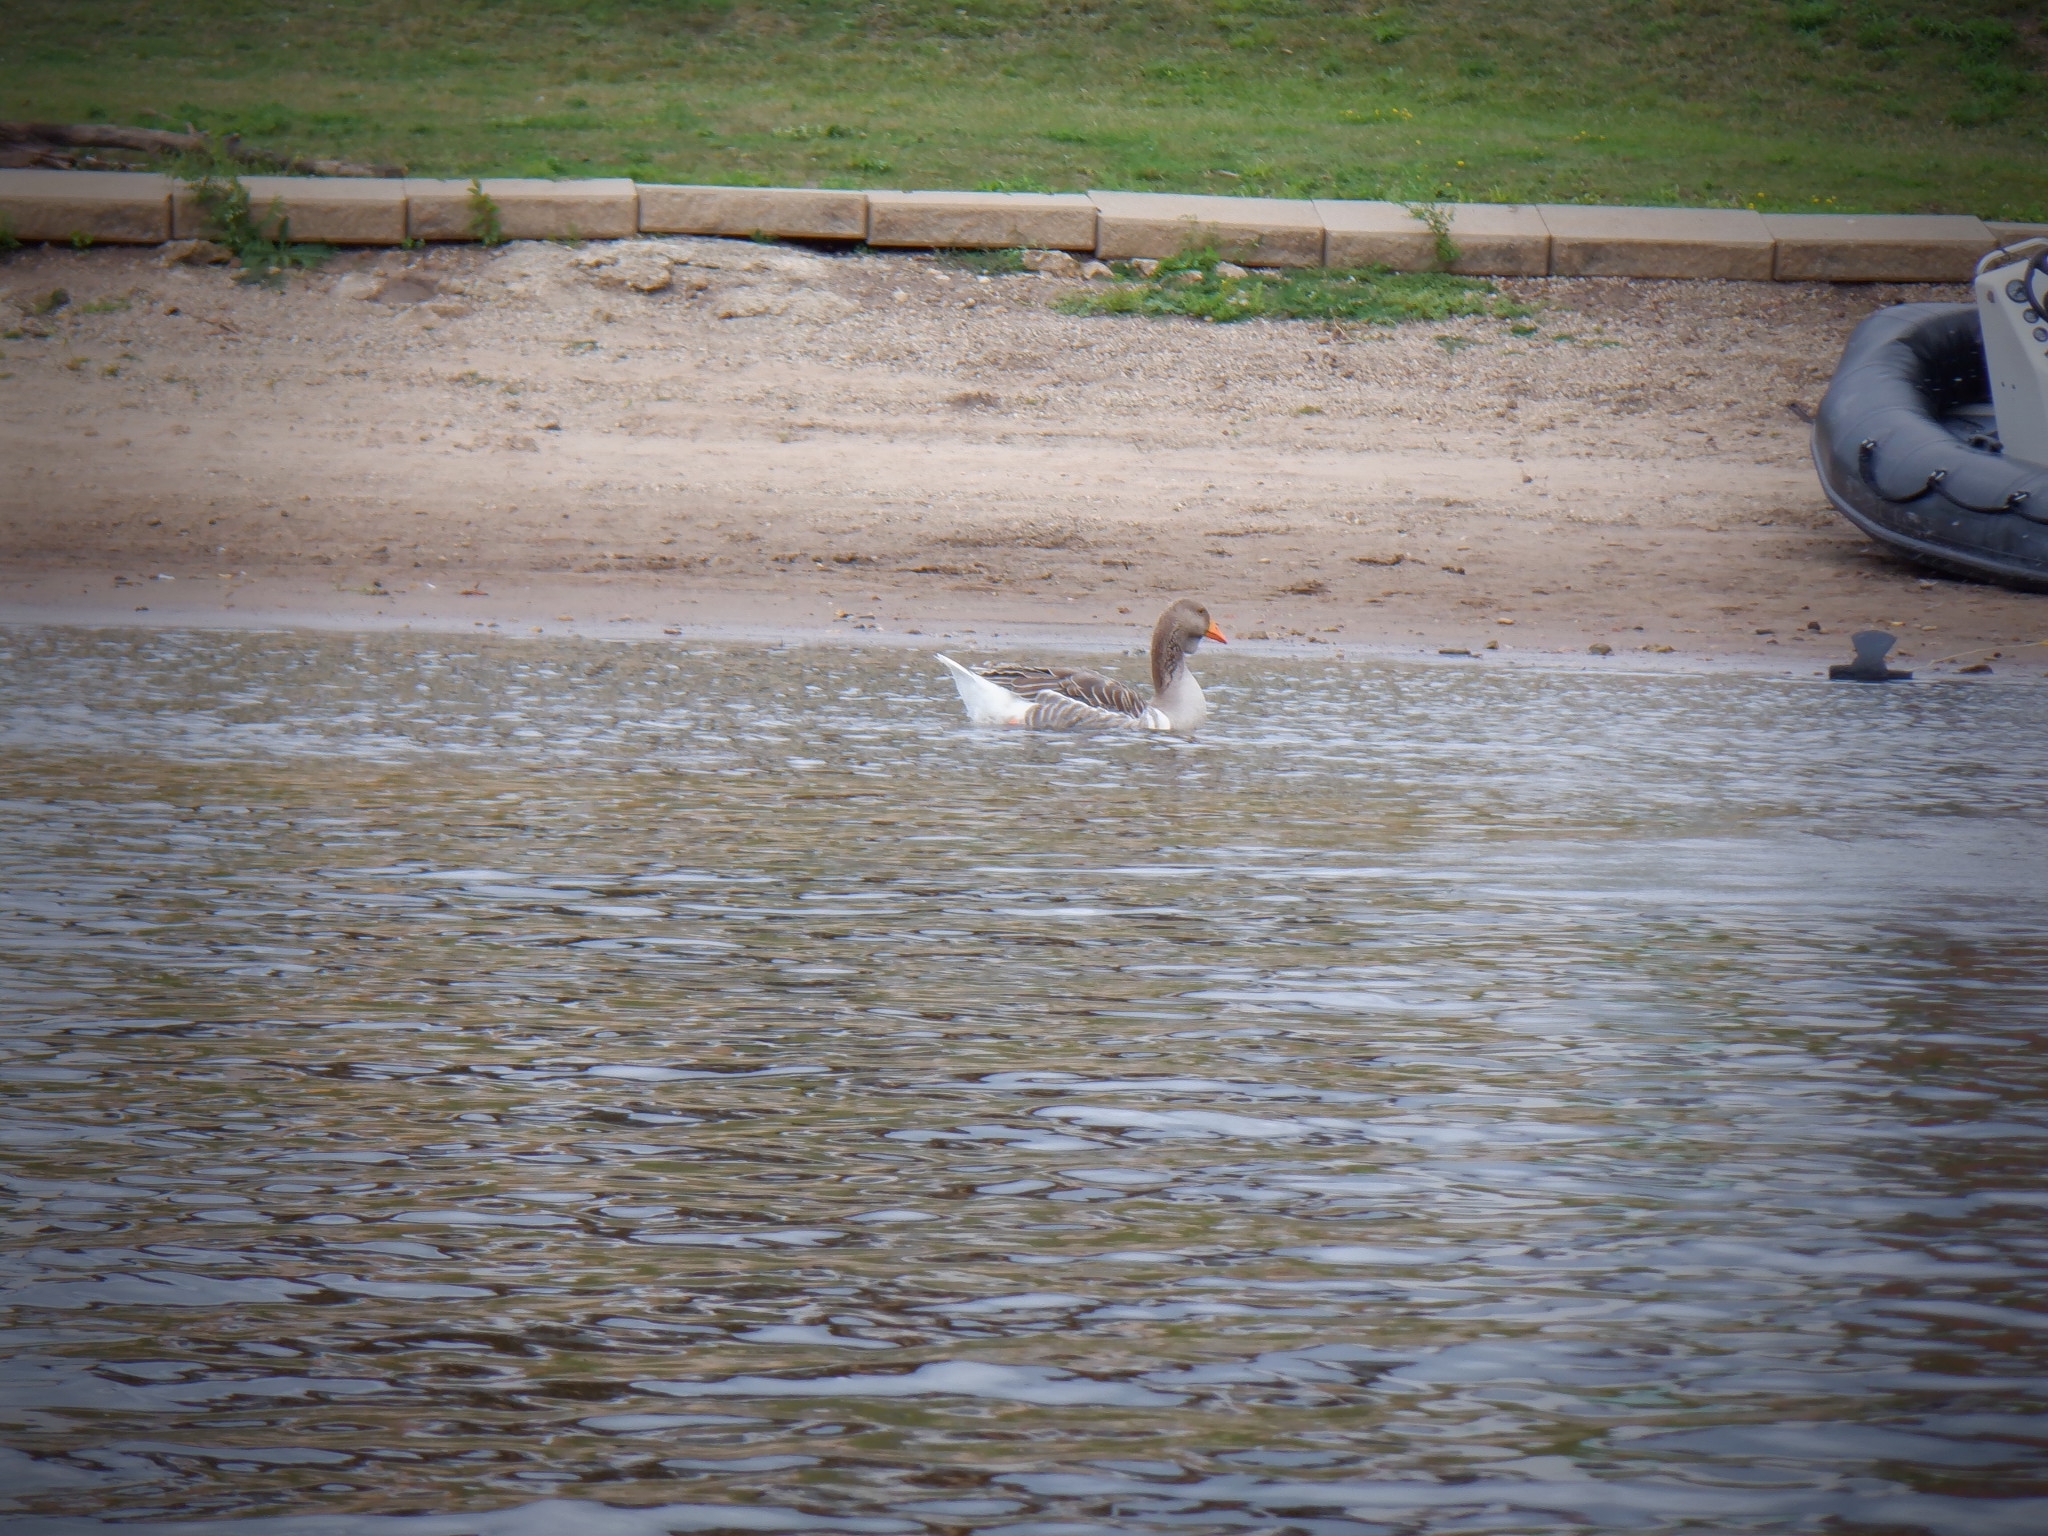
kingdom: Animalia
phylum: Chordata
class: Aves
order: Anseriformes
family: Anatidae
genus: Anser
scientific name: Anser anser
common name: Greylag goose
